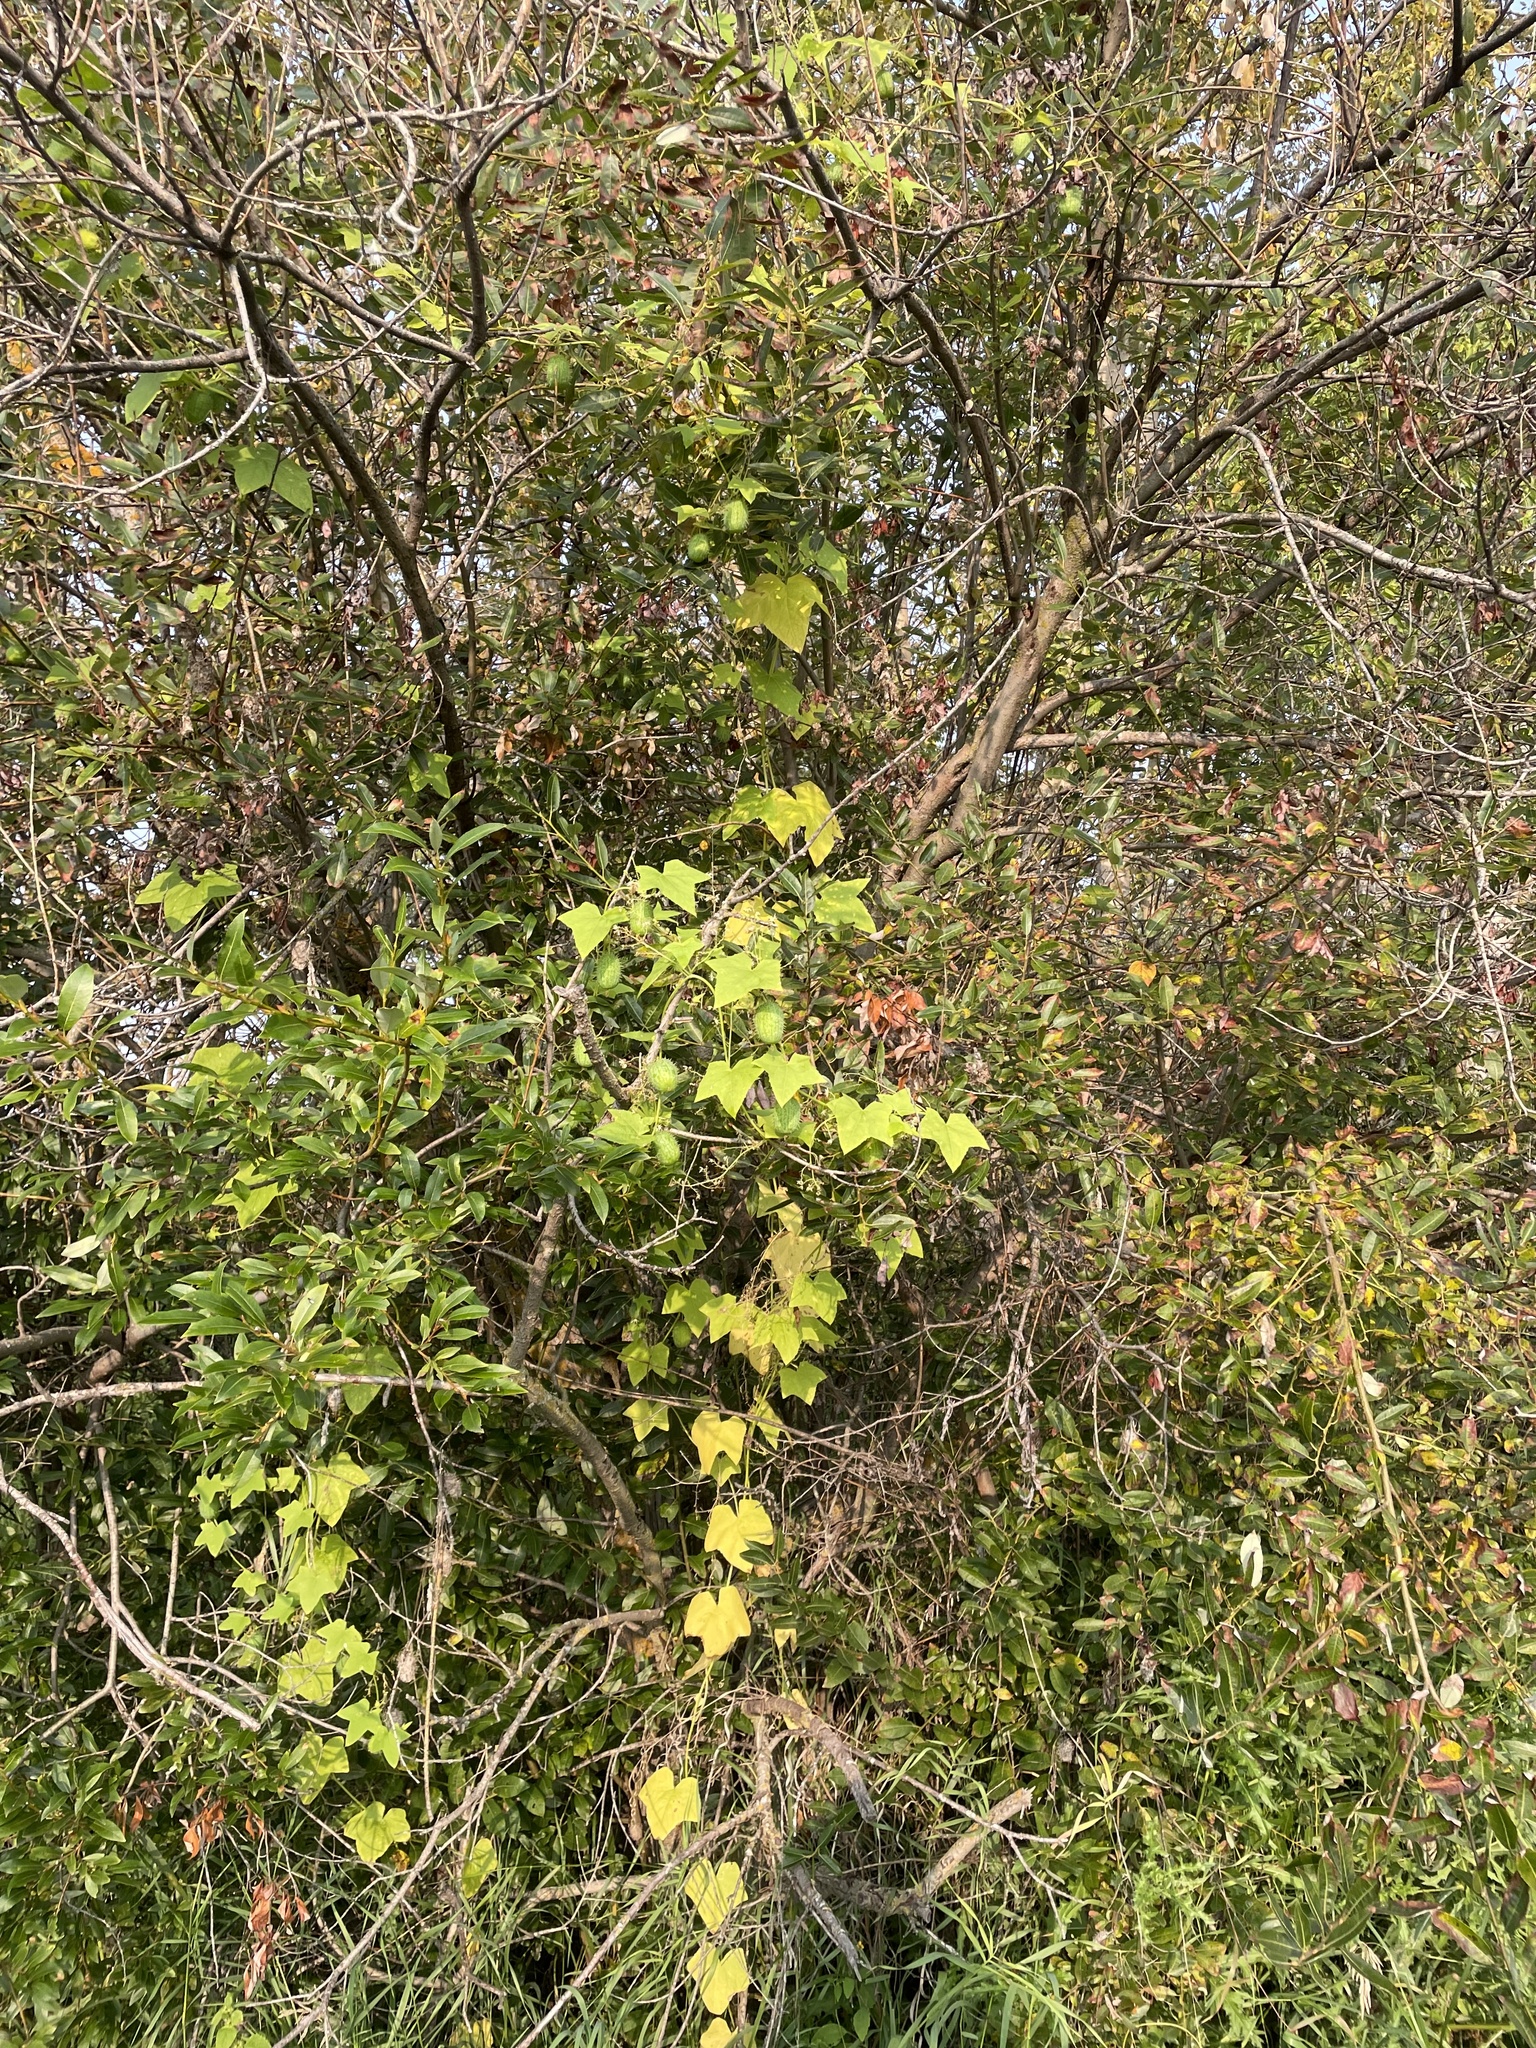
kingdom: Plantae
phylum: Tracheophyta
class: Magnoliopsida
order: Cucurbitales
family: Cucurbitaceae
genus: Echinocystis
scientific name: Echinocystis lobata
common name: Wild cucumber
